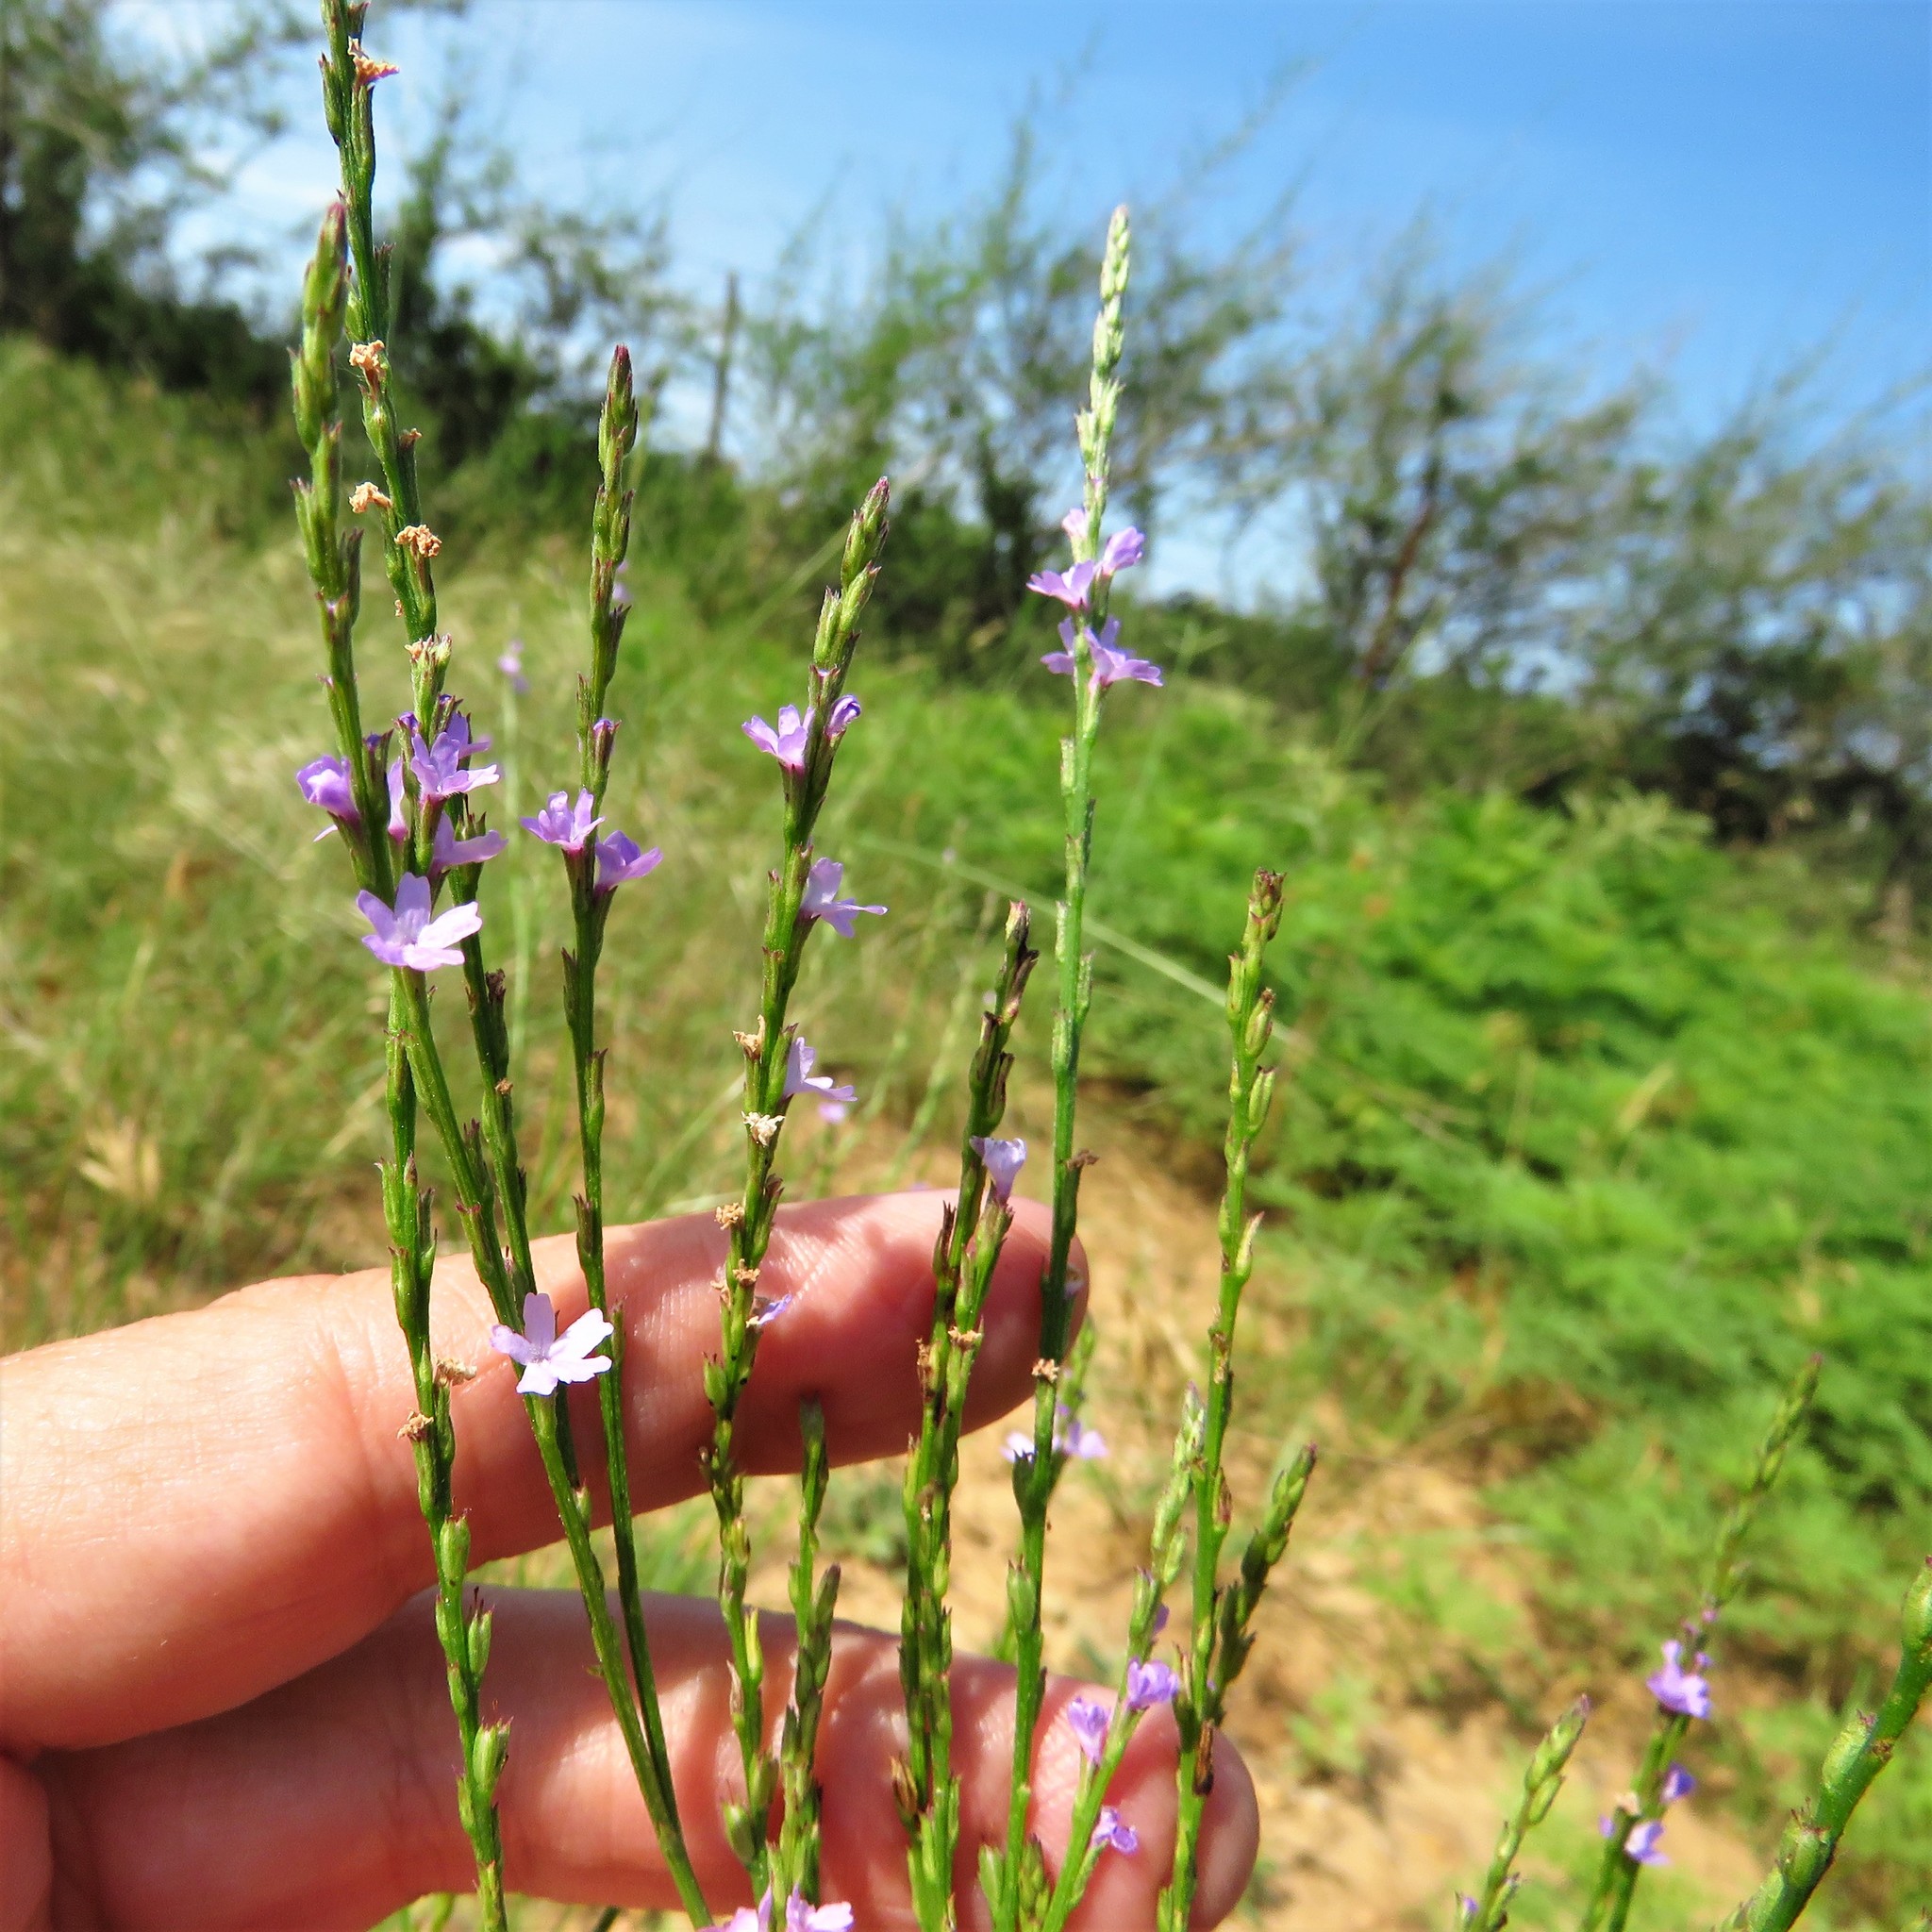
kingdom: Plantae
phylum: Tracheophyta
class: Magnoliopsida
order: Lamiales
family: Verbenaceae
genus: Verbena
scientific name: Verbena halei
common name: Texas vervain
